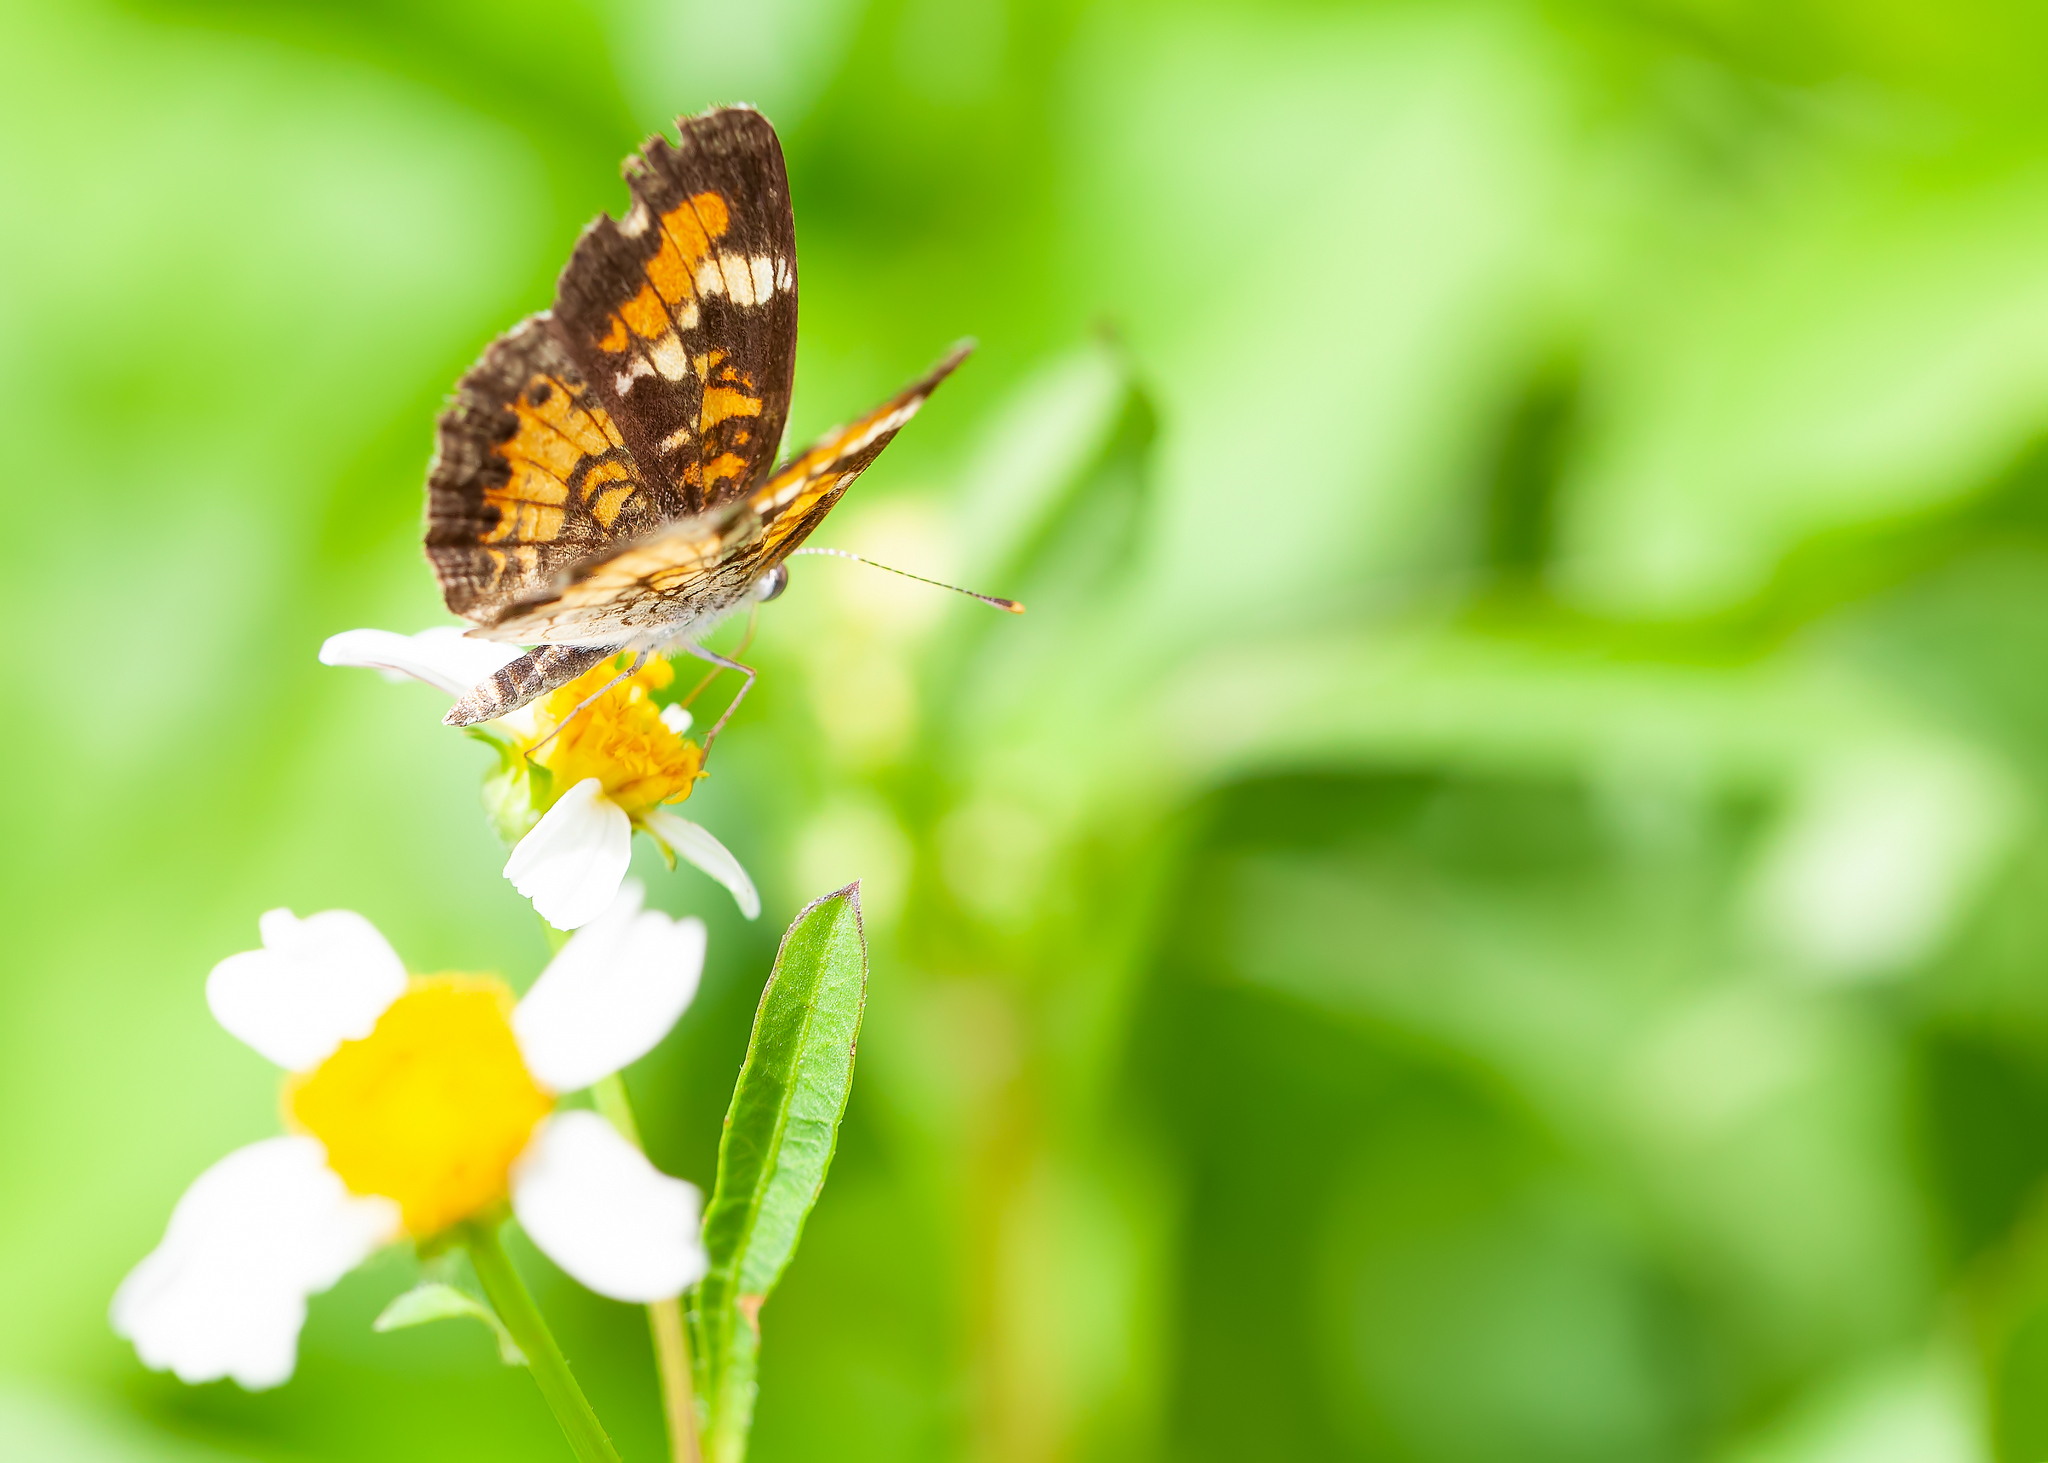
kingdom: Animalia
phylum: Arthropoda
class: Insecta
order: Lepidoptera
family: Nymphalidae
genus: Phyciodes
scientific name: Phyciodes phaon
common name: Phaon crescent
